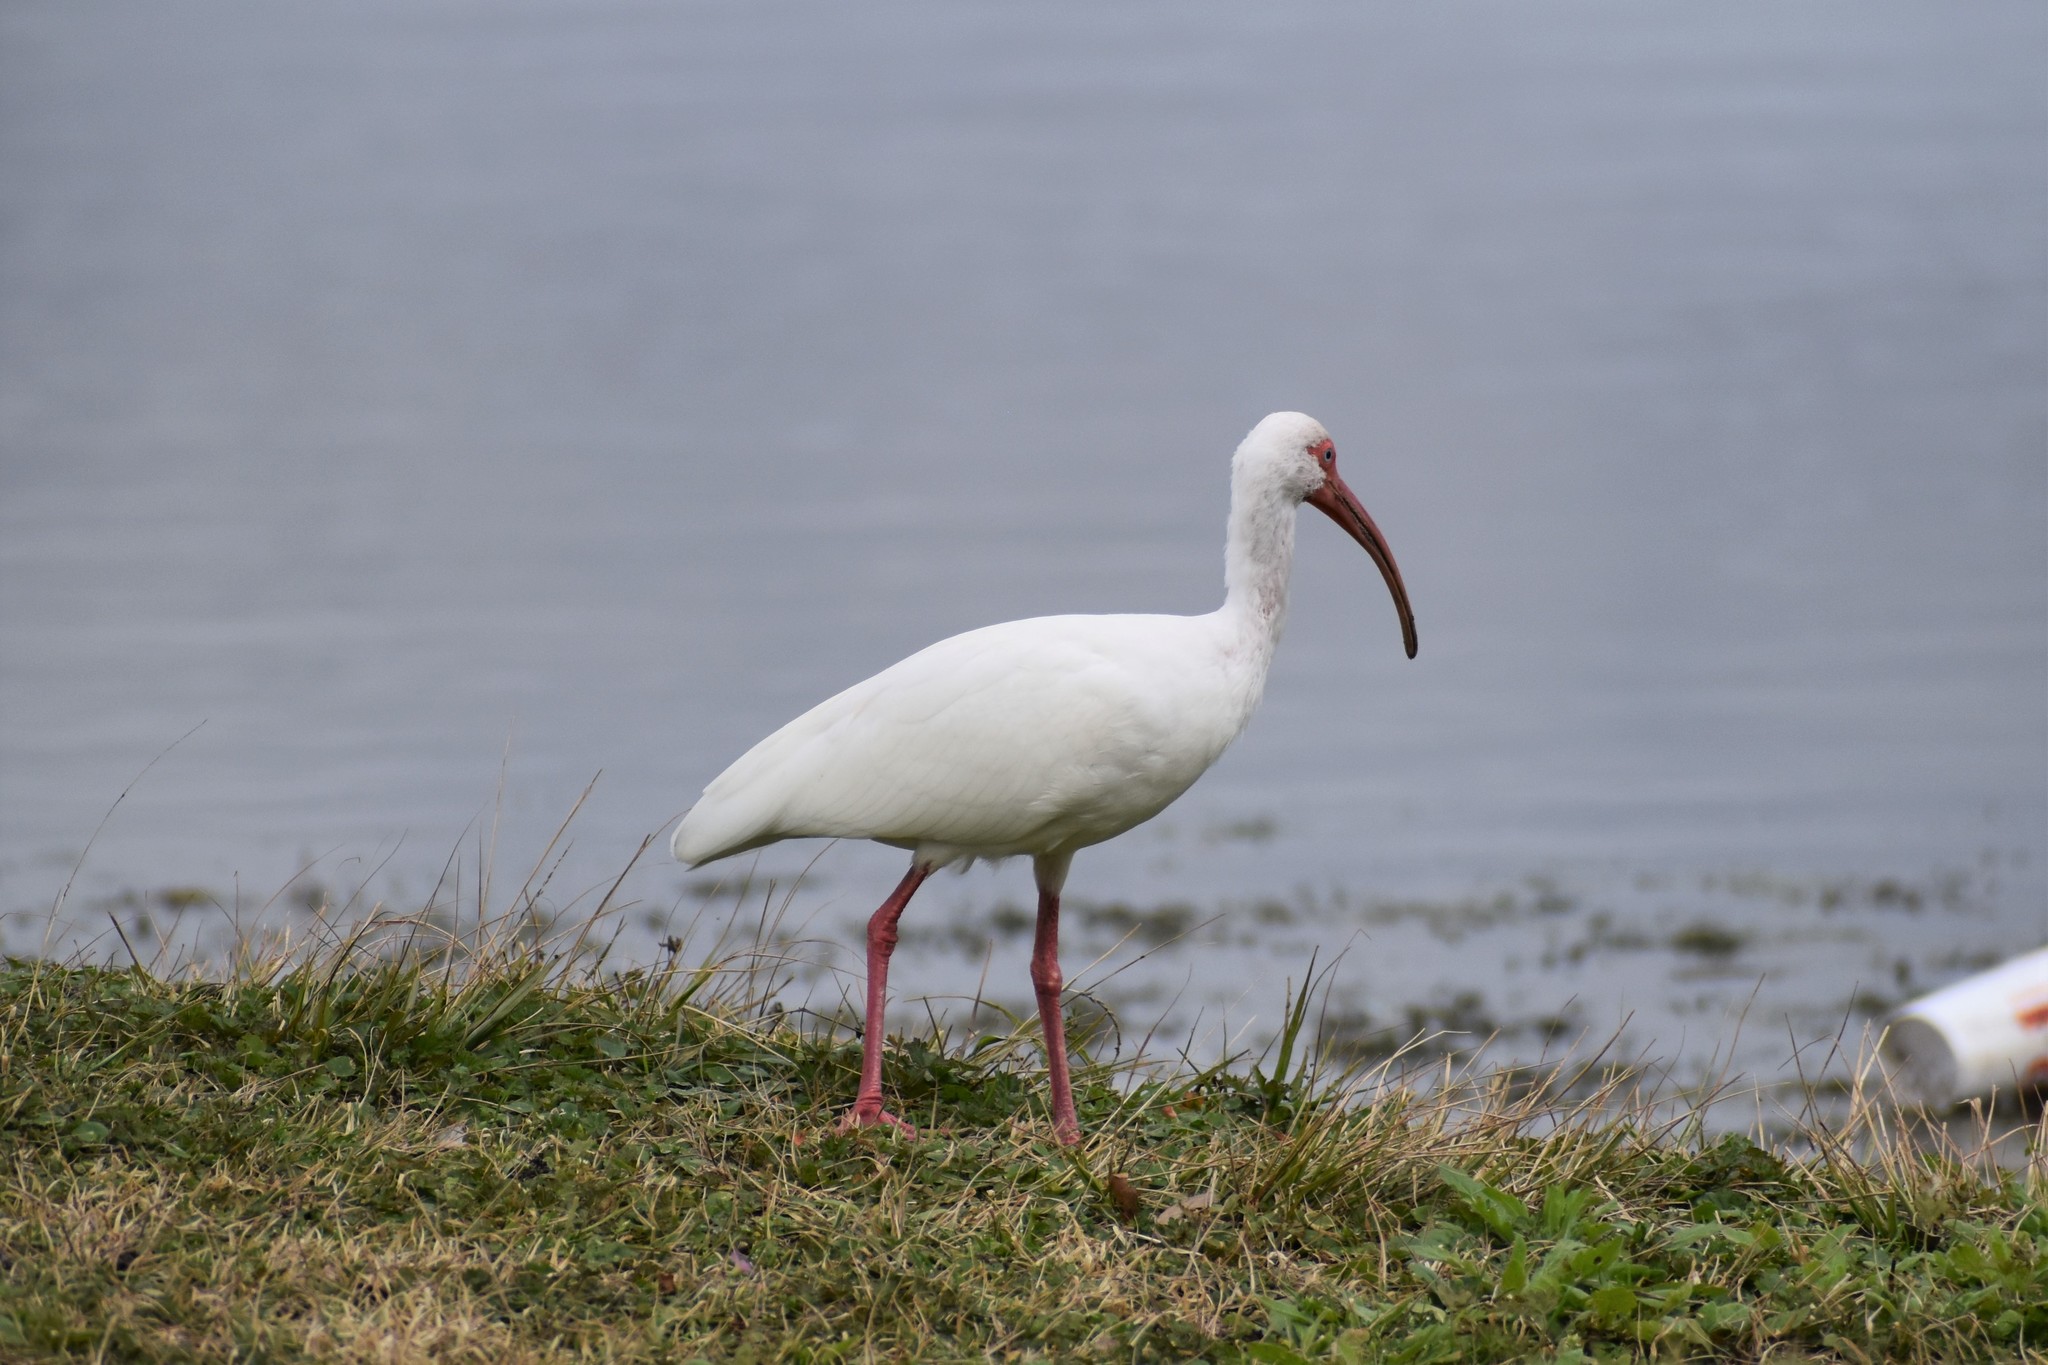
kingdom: Animalia
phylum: Chordata
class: Aves
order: Pelecaniformes
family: Threskiornithidae
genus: Eudocimus
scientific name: Eudocimus albus
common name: White ibis
